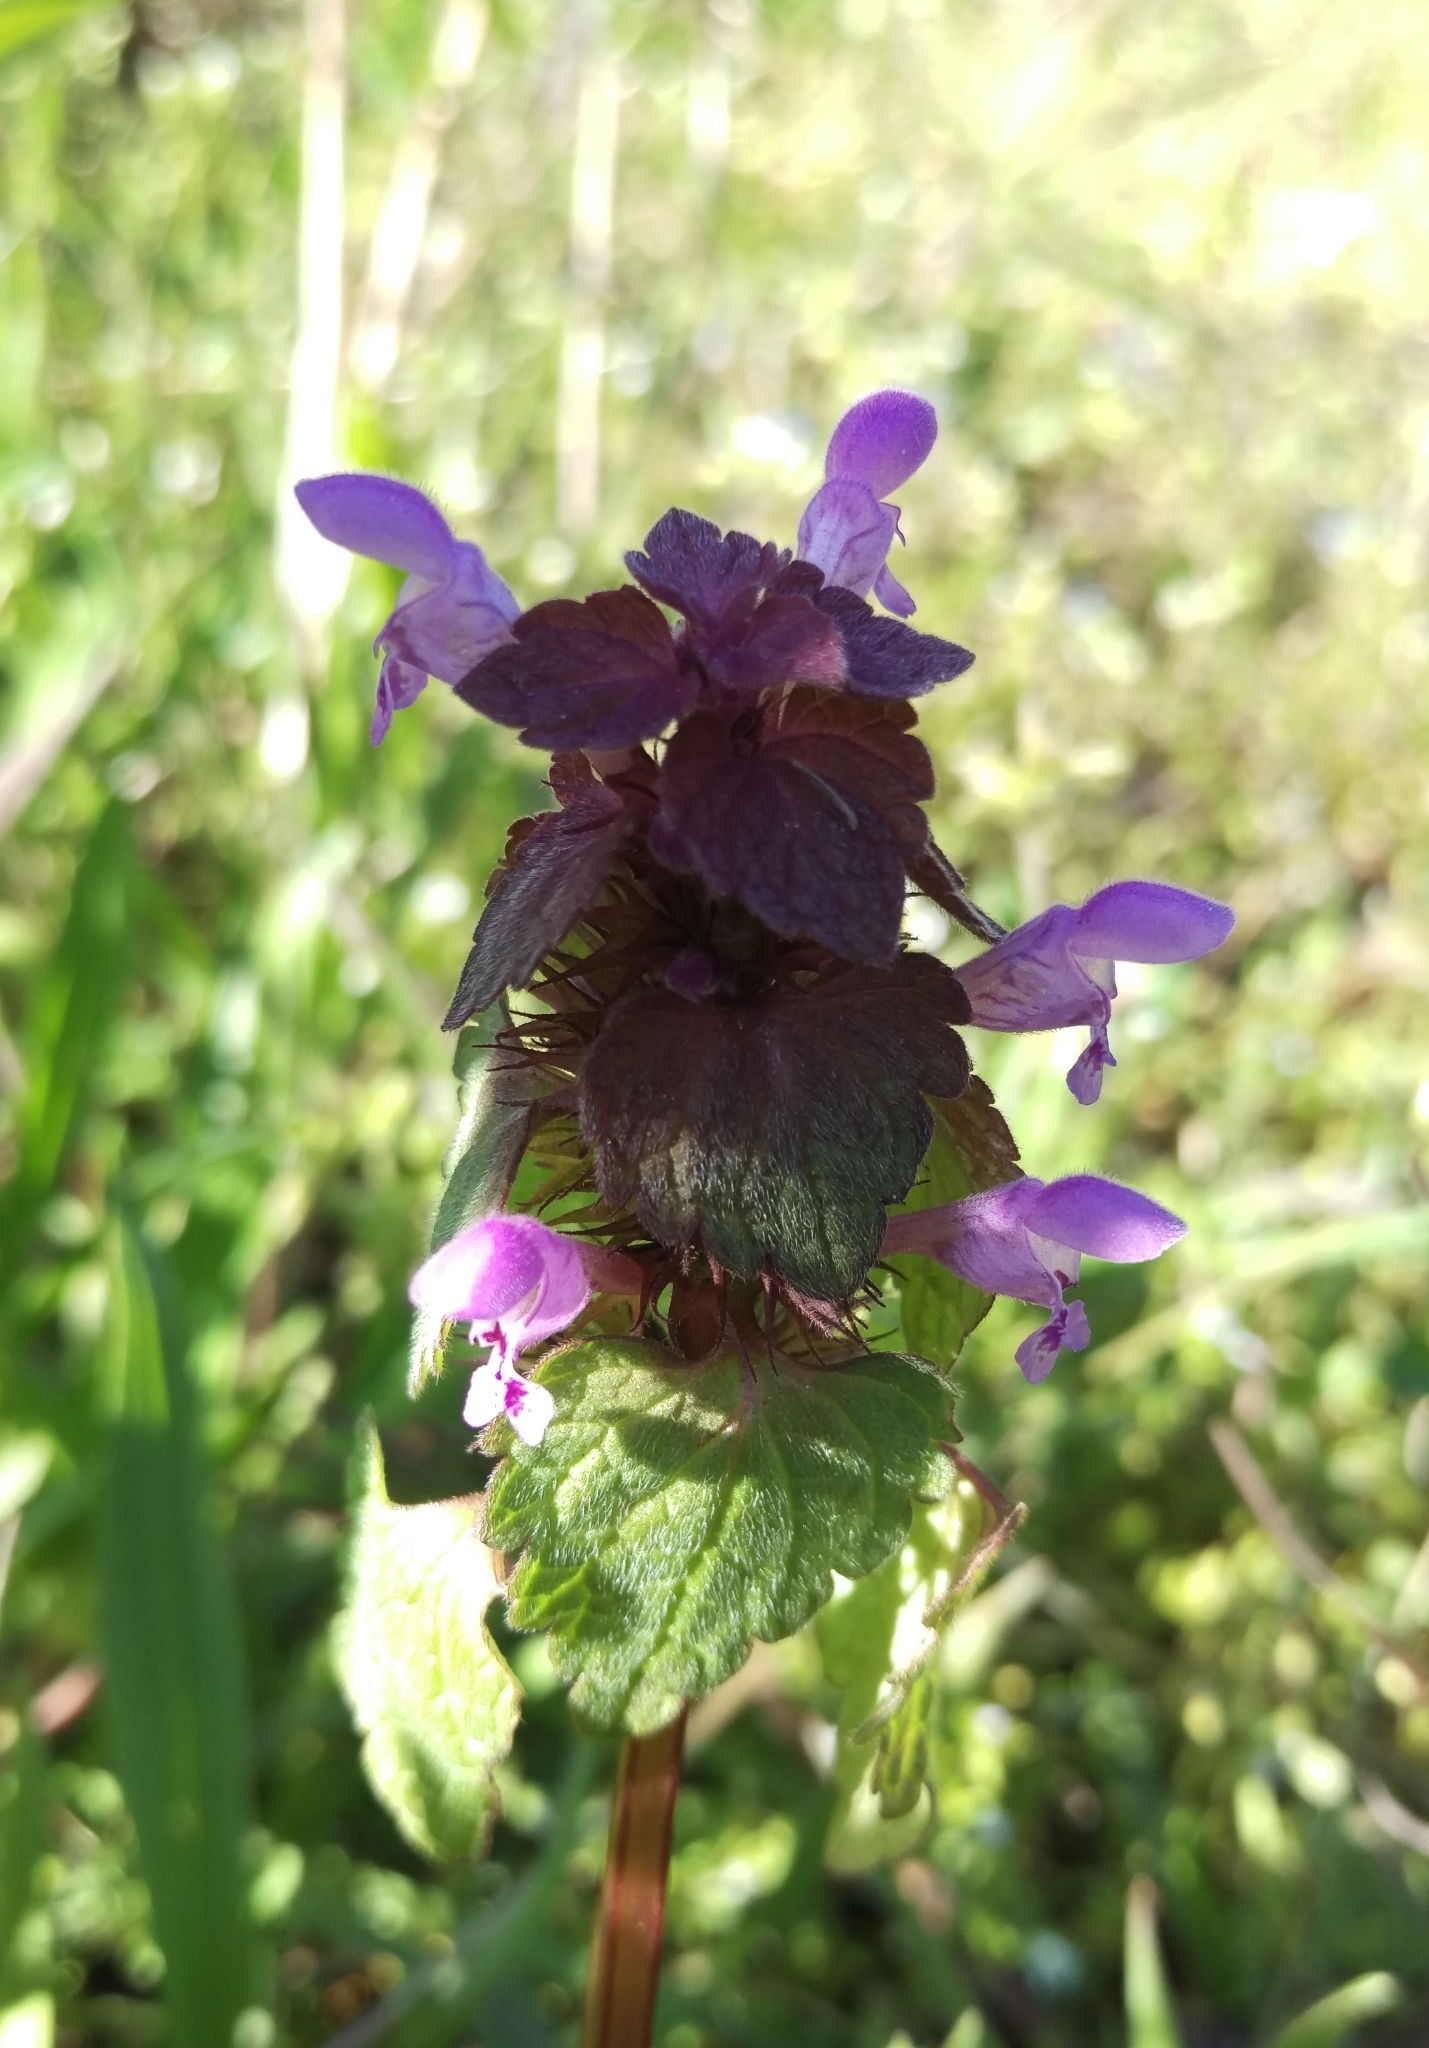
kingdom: Plantae
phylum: Tracheophyta
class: Magnoliopsida
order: Lamiales
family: Lamiaceae
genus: Lamium
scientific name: Lamium purpureum
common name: Red dead-nettle
